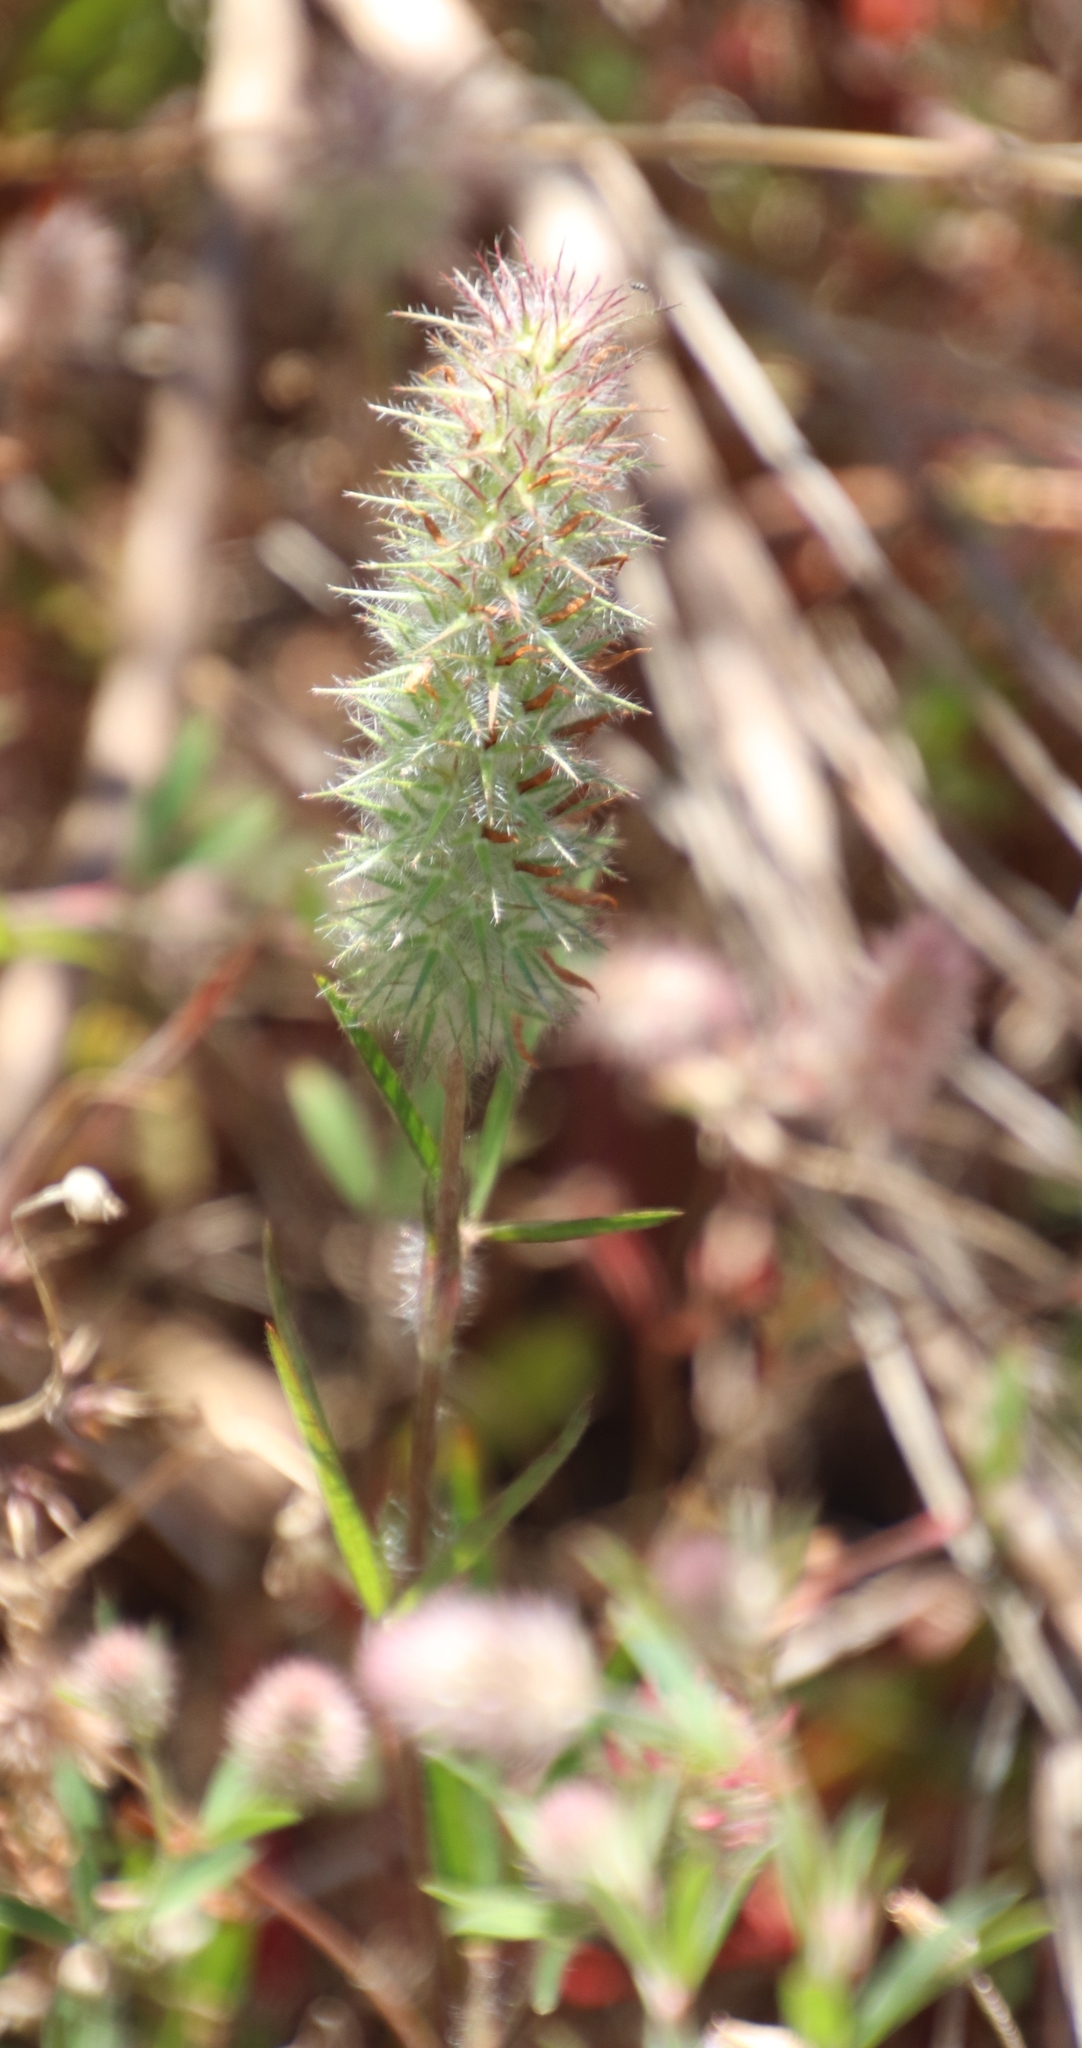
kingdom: Plantae
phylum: Tracheophyta
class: Magnoliopsida
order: Fabales
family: Fabaceae
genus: Trifolium
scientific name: Trifolium angustifolium
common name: Narrow clover
